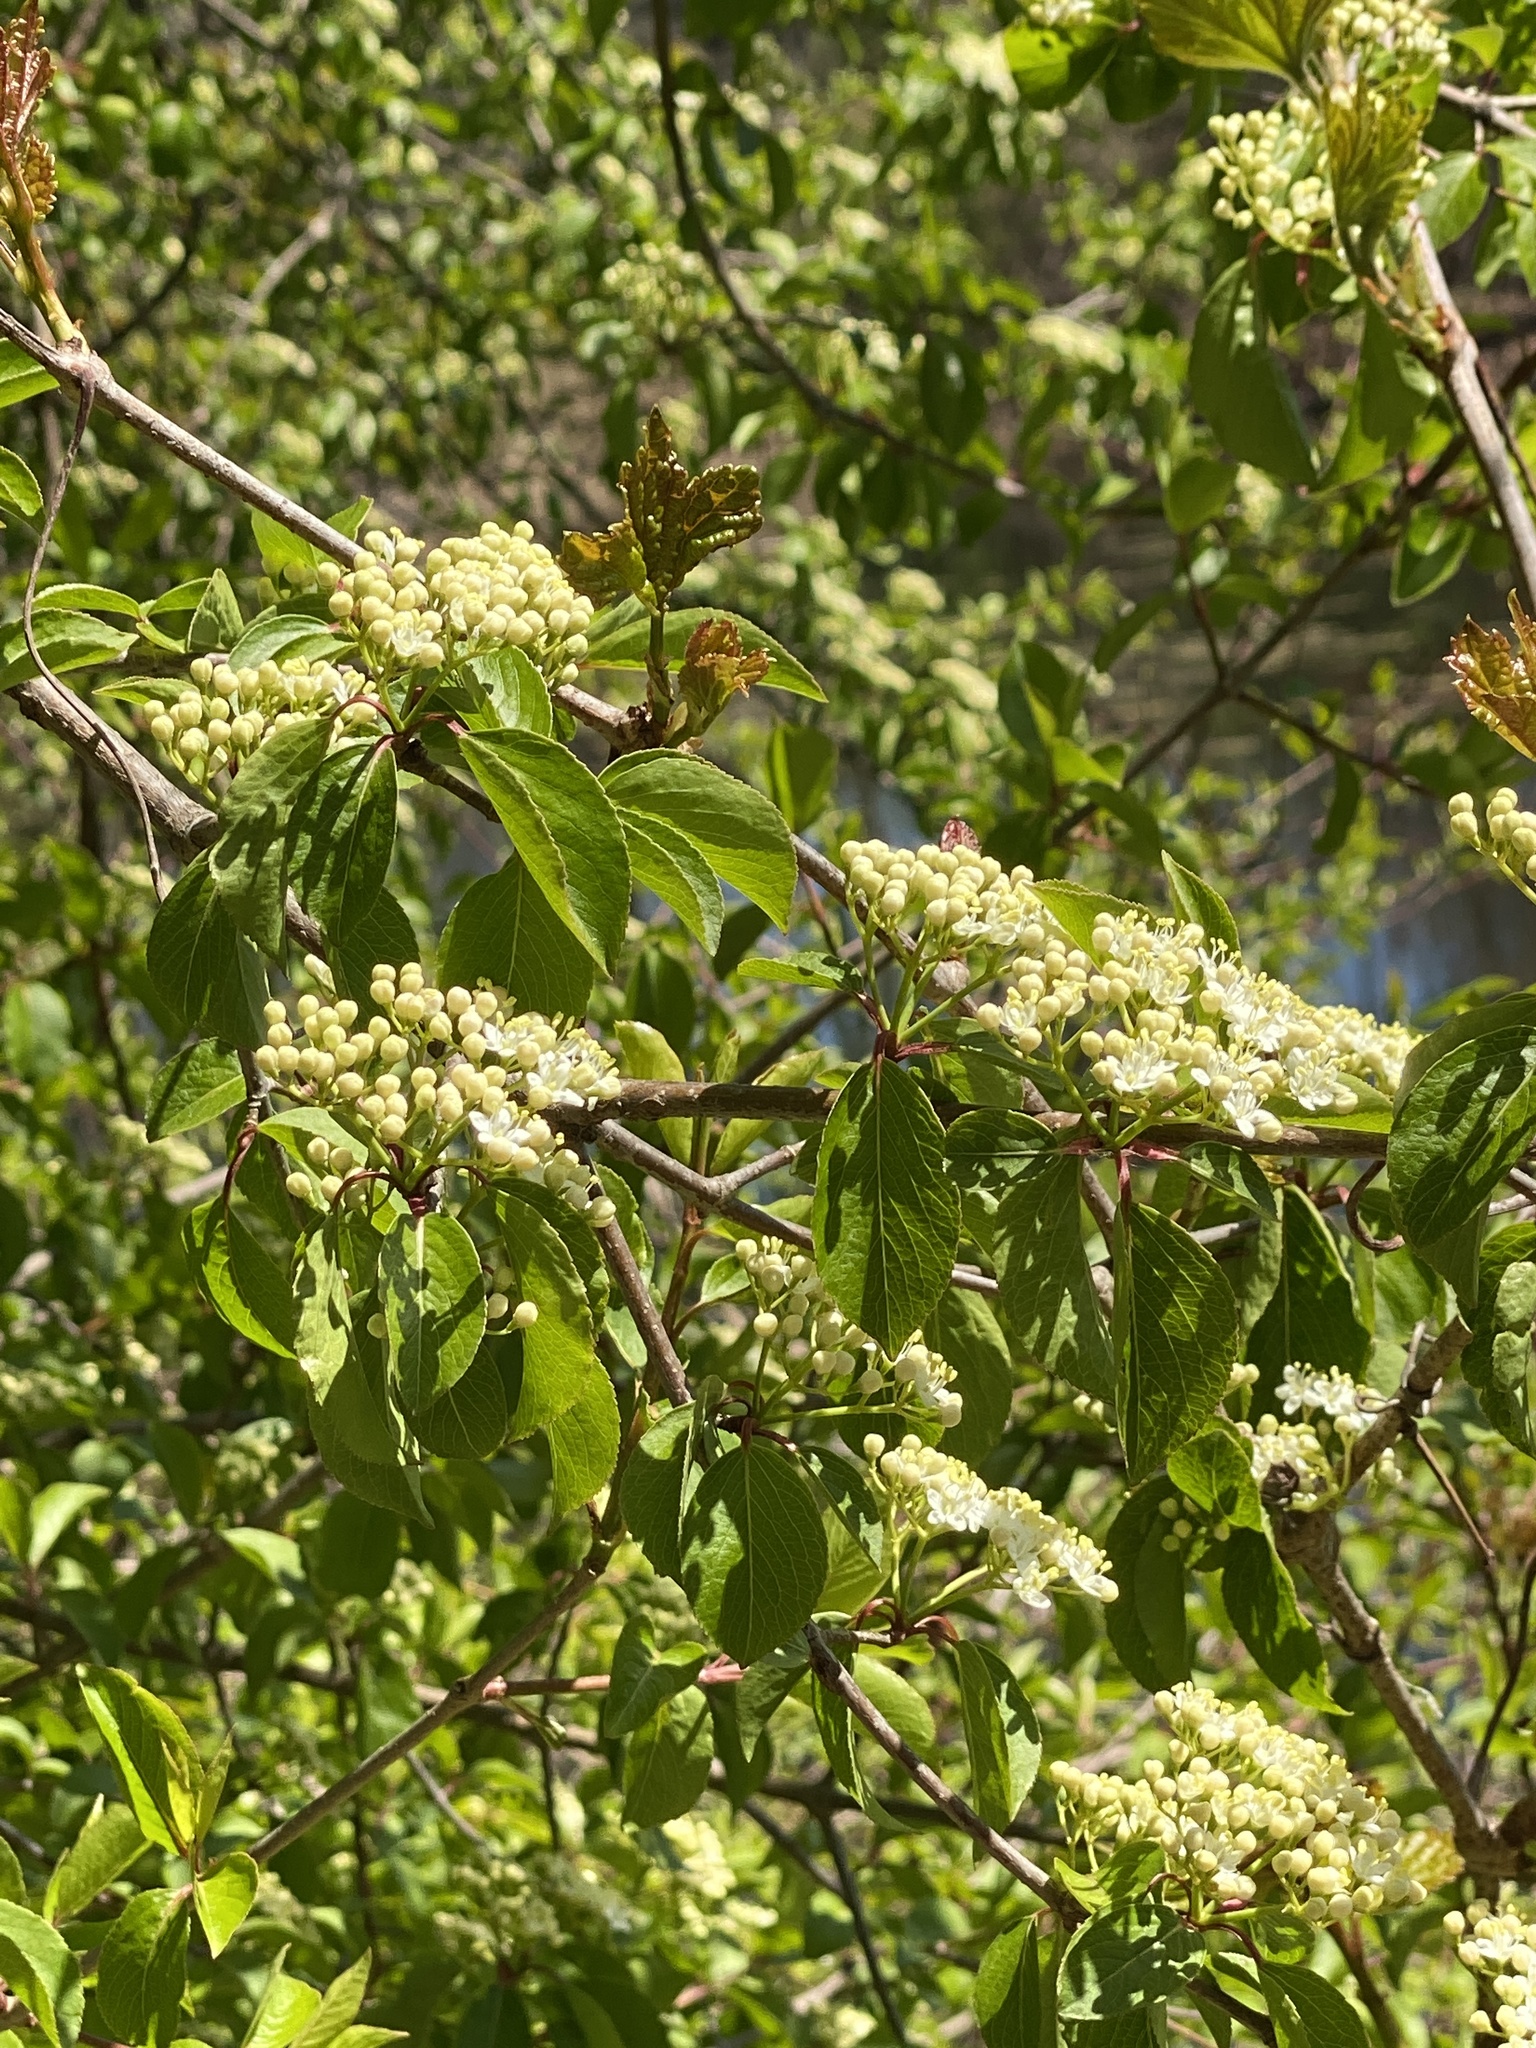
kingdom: Plantae
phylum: Tracheophyta
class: Magnoliopsida
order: Dipsacales
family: Viburnaceae
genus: Viburnum
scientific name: Viburnum prunifolium
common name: Black haw
